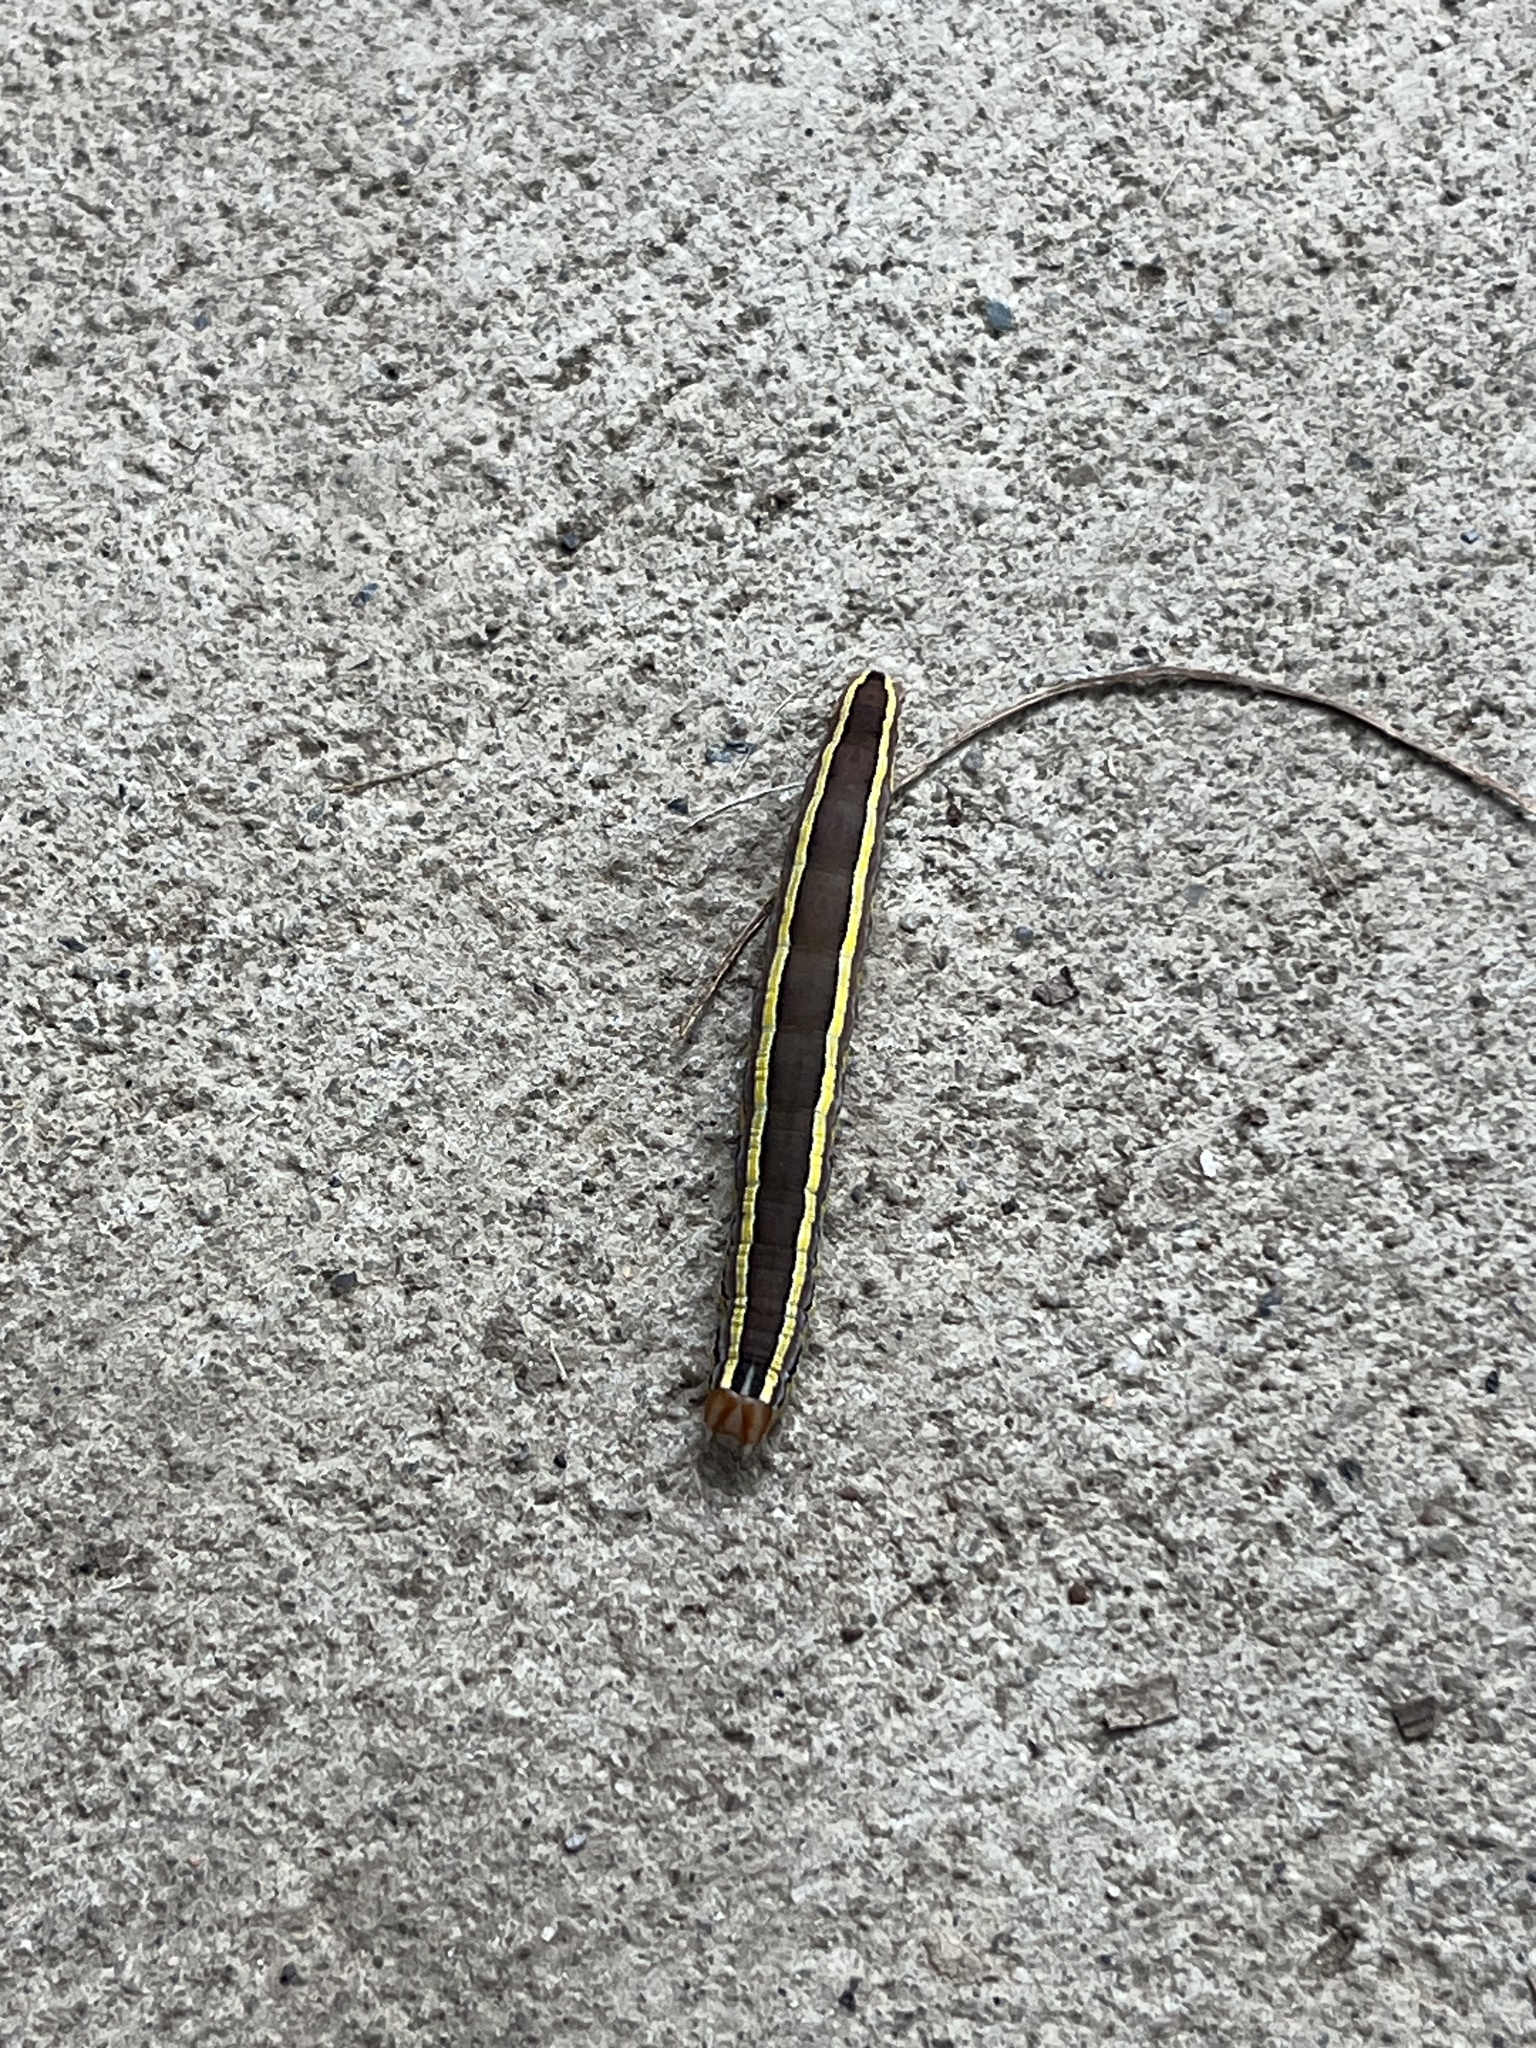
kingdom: Animalia
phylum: Arthropoda
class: Insecta
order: Lepidoptera
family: Noctuidae
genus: Trichordestra
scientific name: Trichordestra legitima
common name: Striped garden caterpillar
